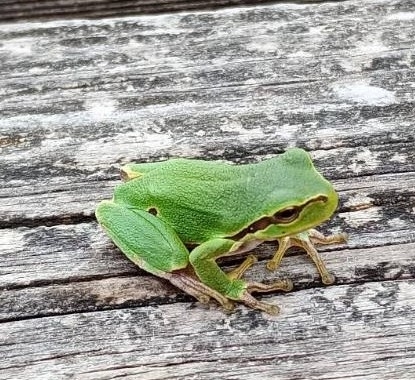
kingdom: Animalia
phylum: Chordata
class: Amphibia
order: Anura
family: Hylidae
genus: Hyla
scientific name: Hyla arborea
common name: Common tree frog
